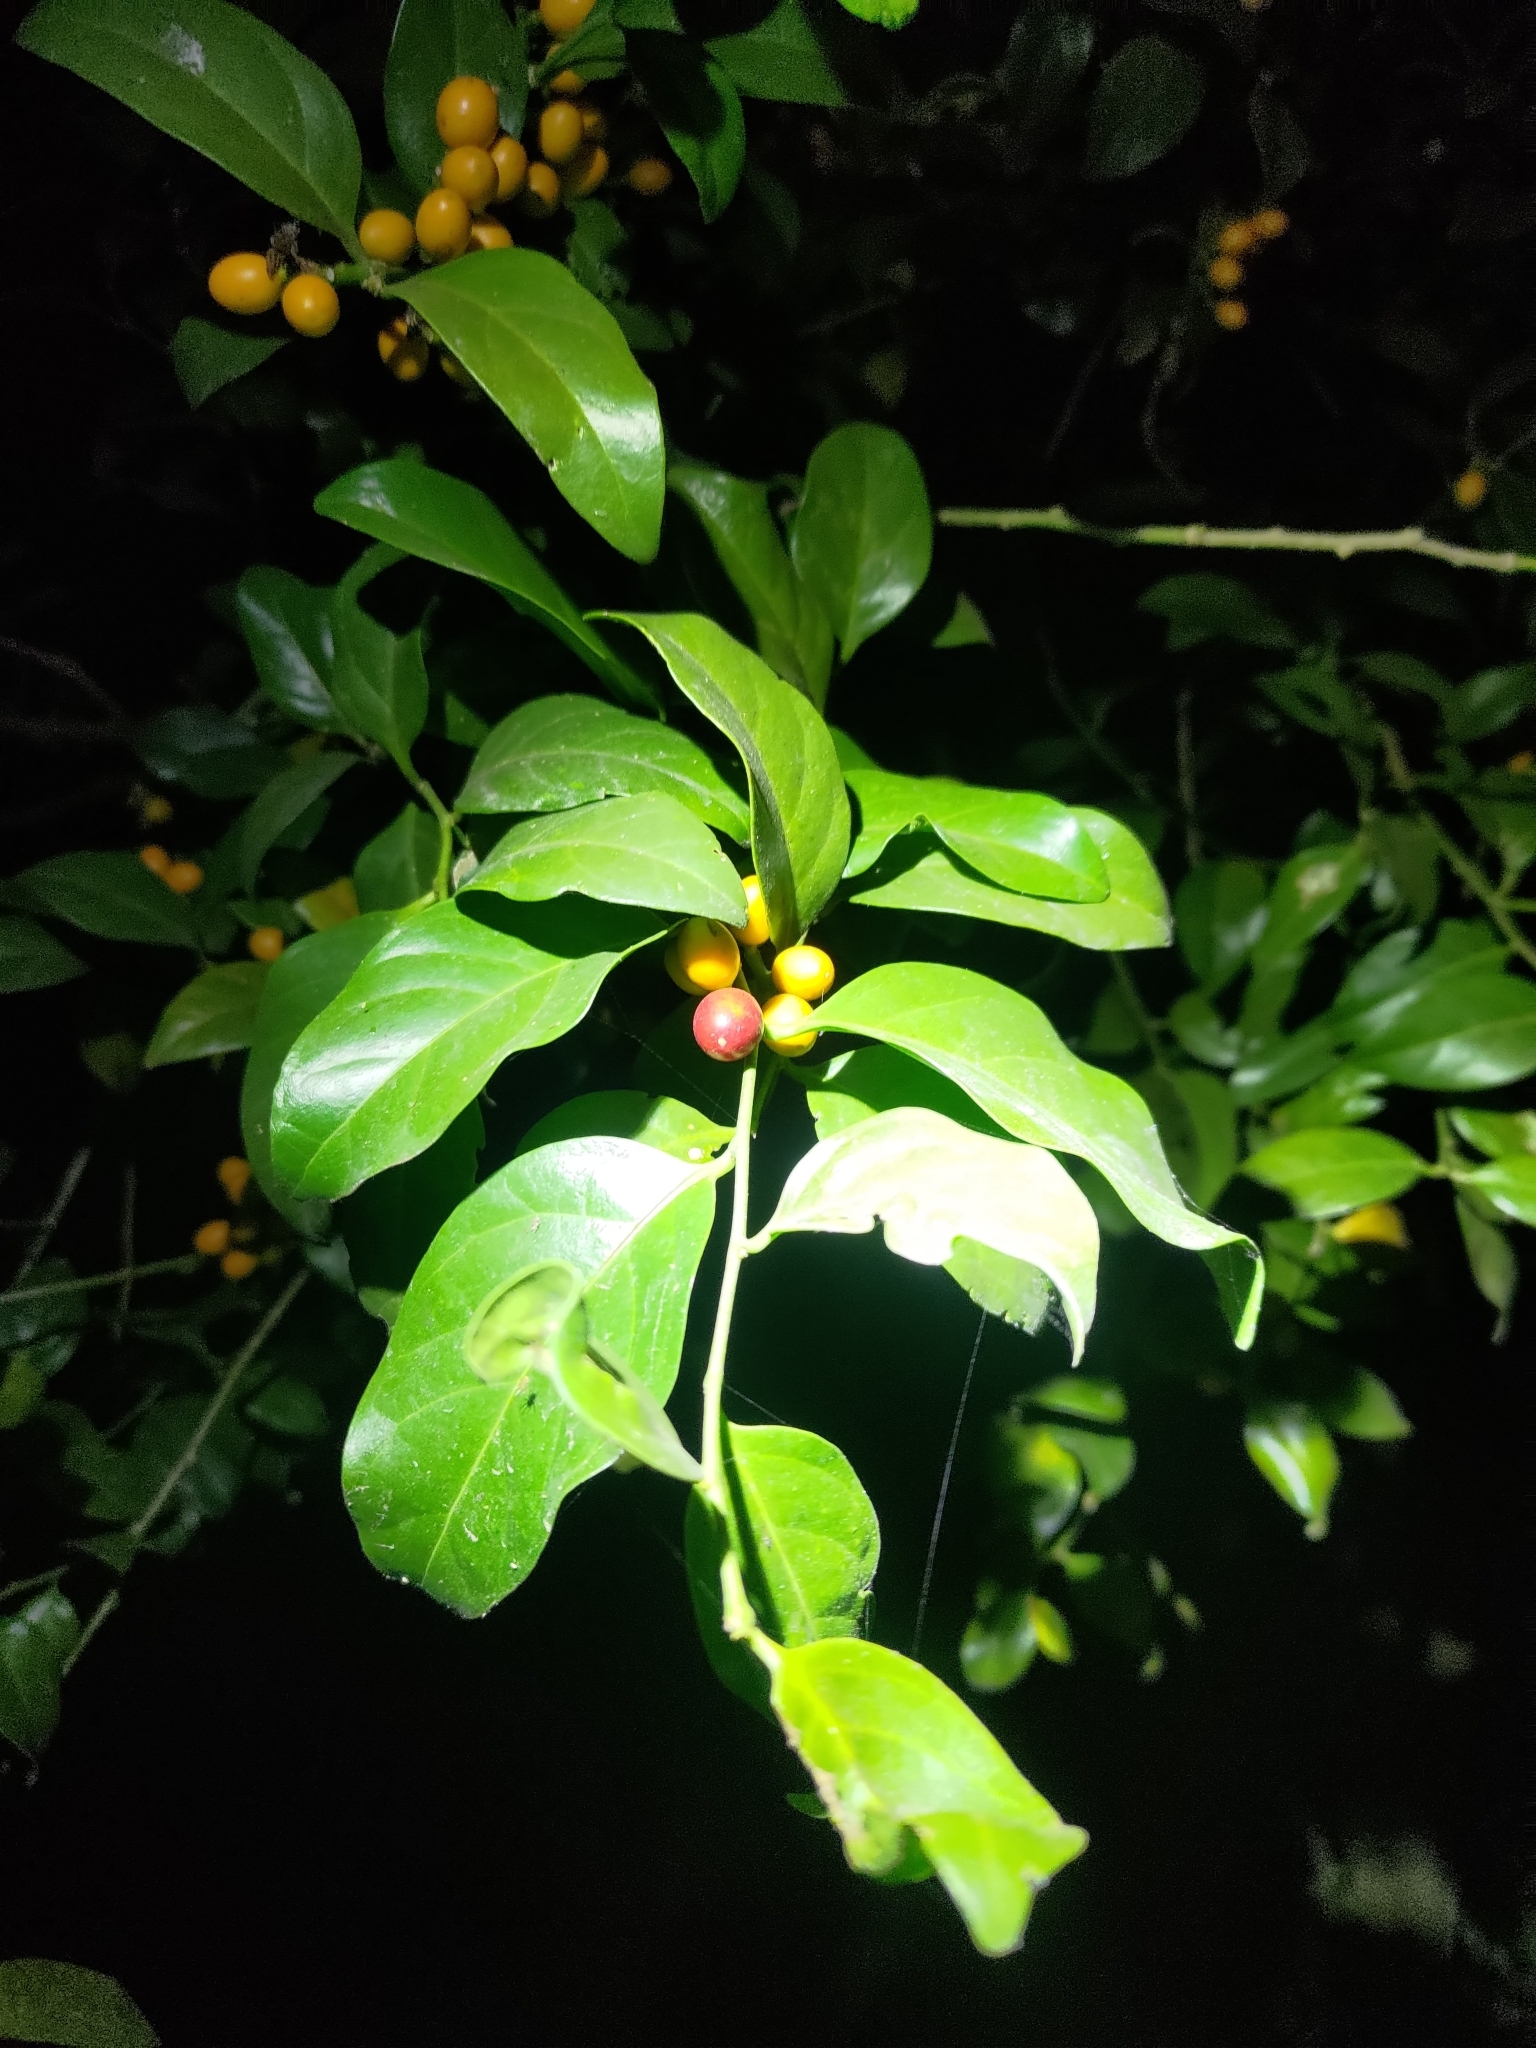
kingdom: Plantae
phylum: Tracheophyta
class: Magnoliopsida
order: Santalales
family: Opiliaceae
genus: Champereia
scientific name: Champereia manillana
